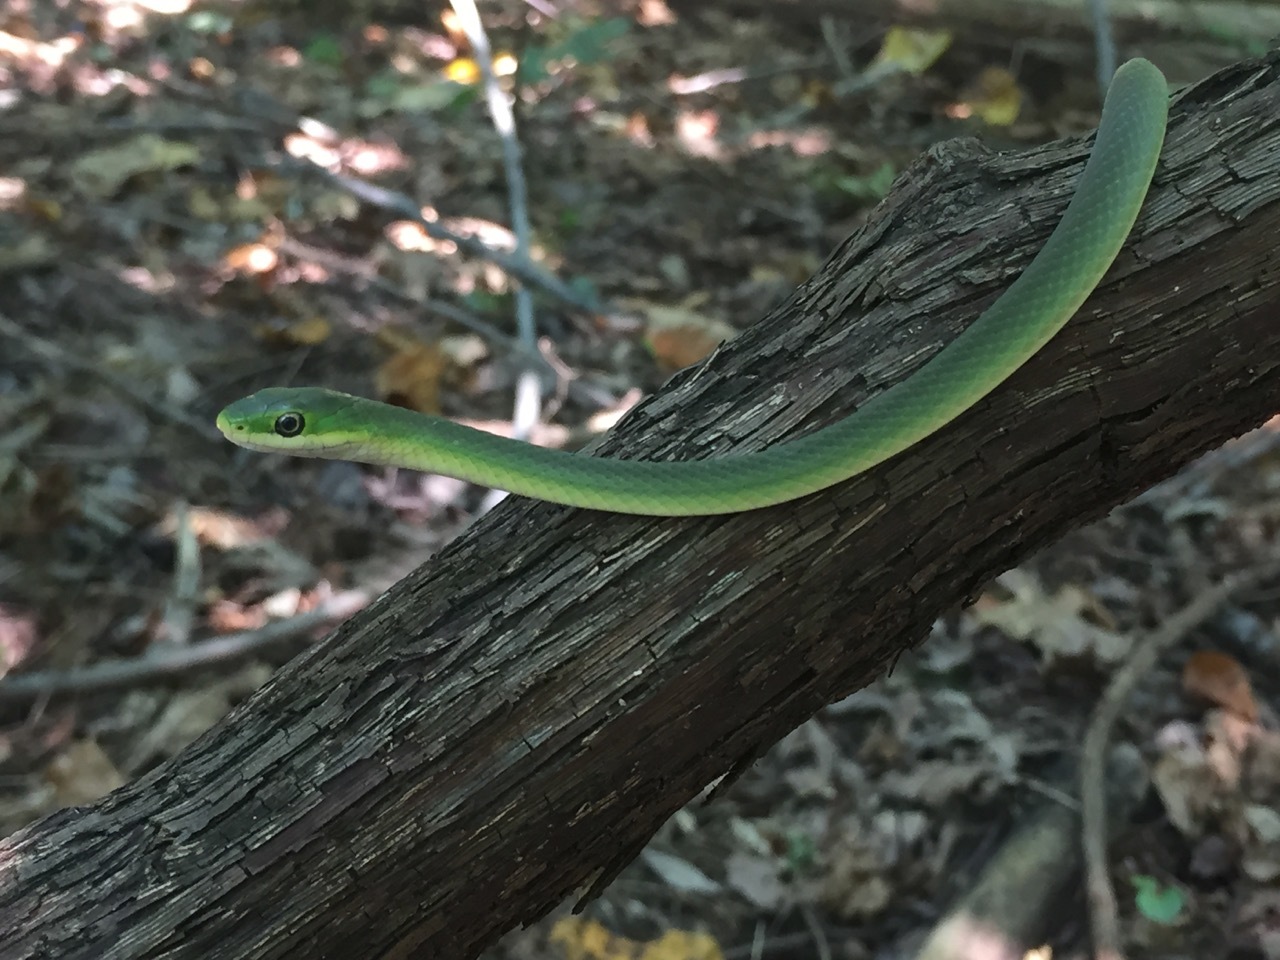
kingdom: Animalia
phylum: Chordata
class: Squamata
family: Colubridae
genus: Opheodrys
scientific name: Opheodrys aestivus
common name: Rough greensnake
